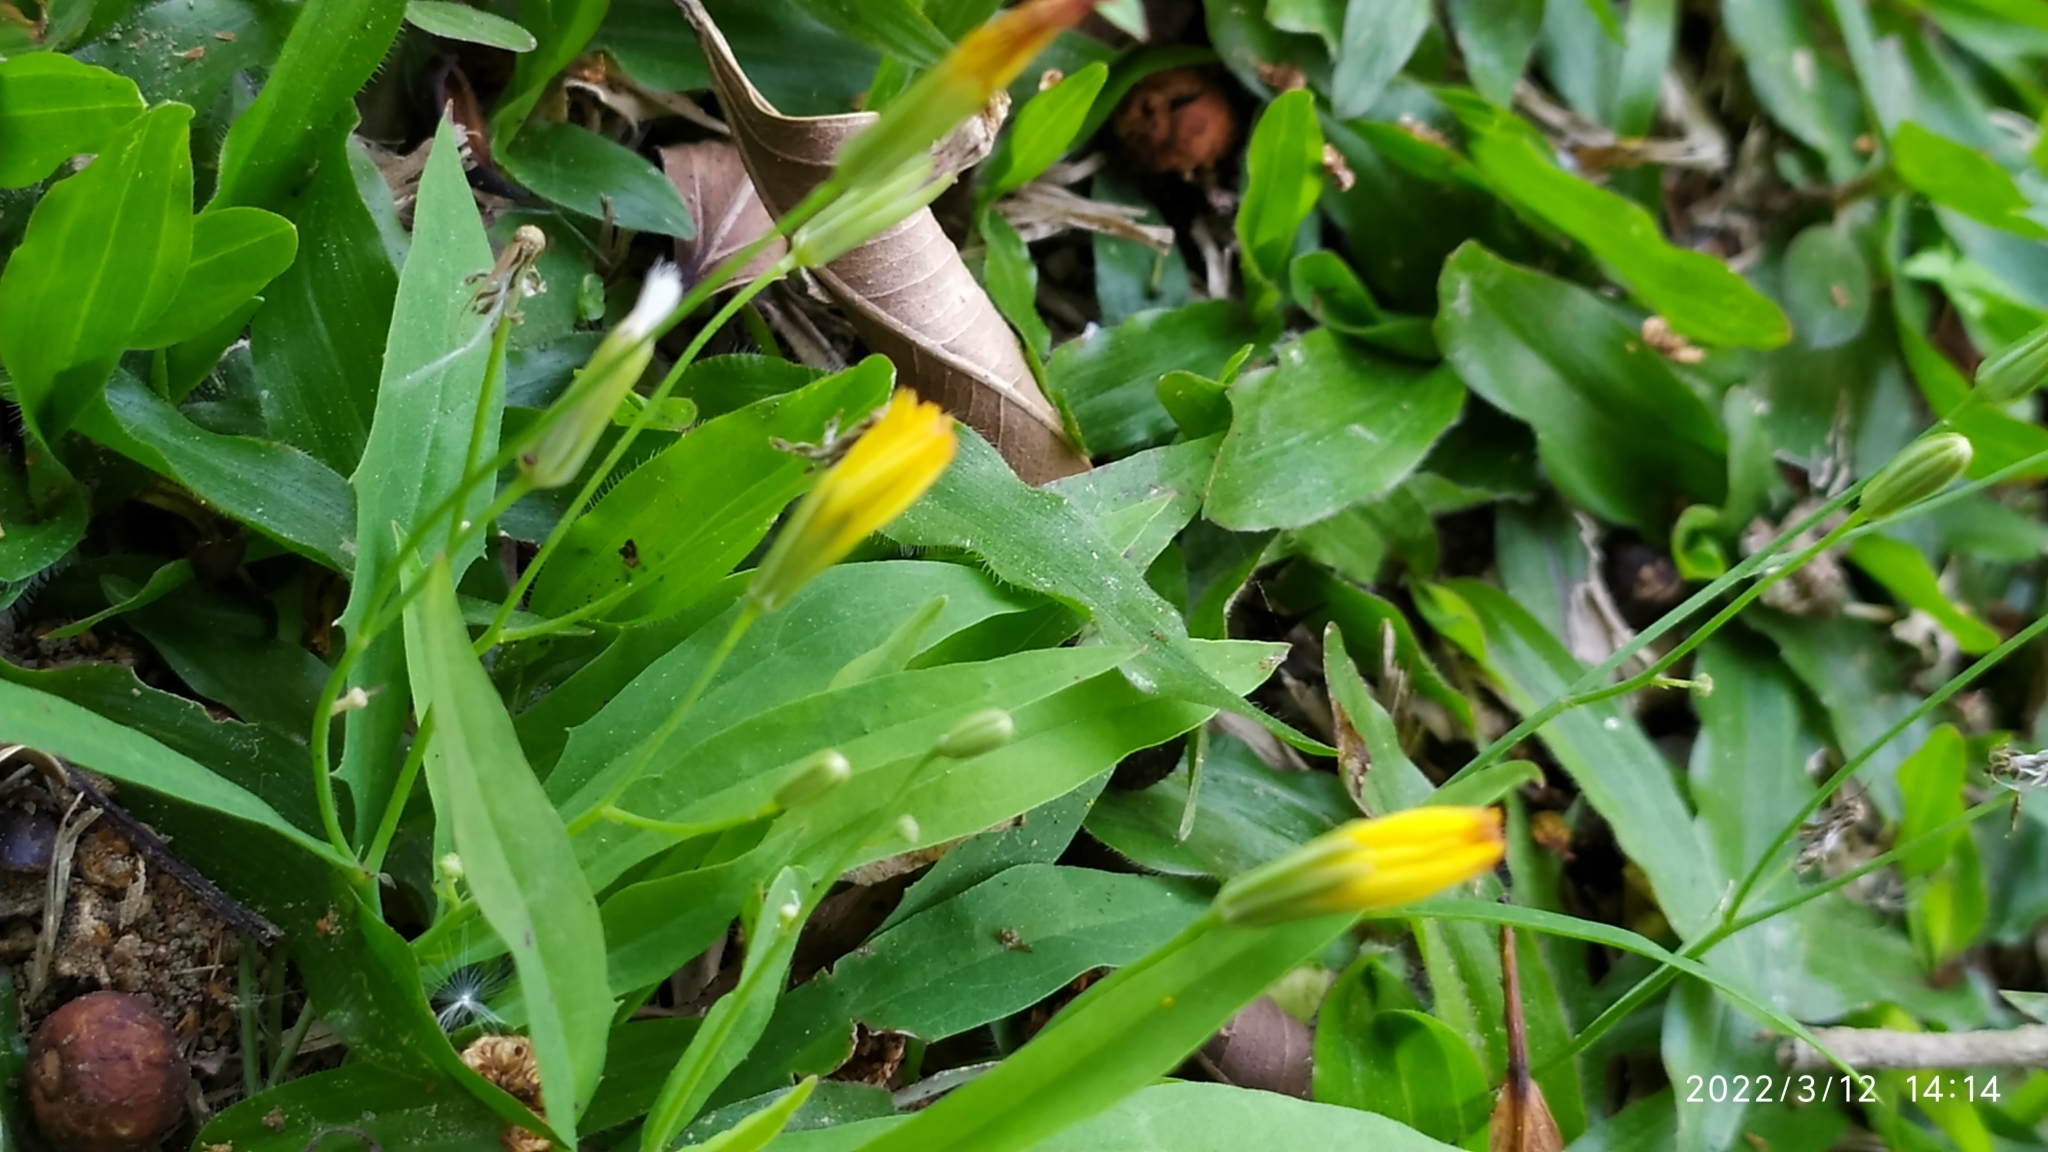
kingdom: Plantae
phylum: Tracheophyta
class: Magnoliopsida
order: Asterales
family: Asteraceae
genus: Ixeris
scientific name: Ixeris chinensis
